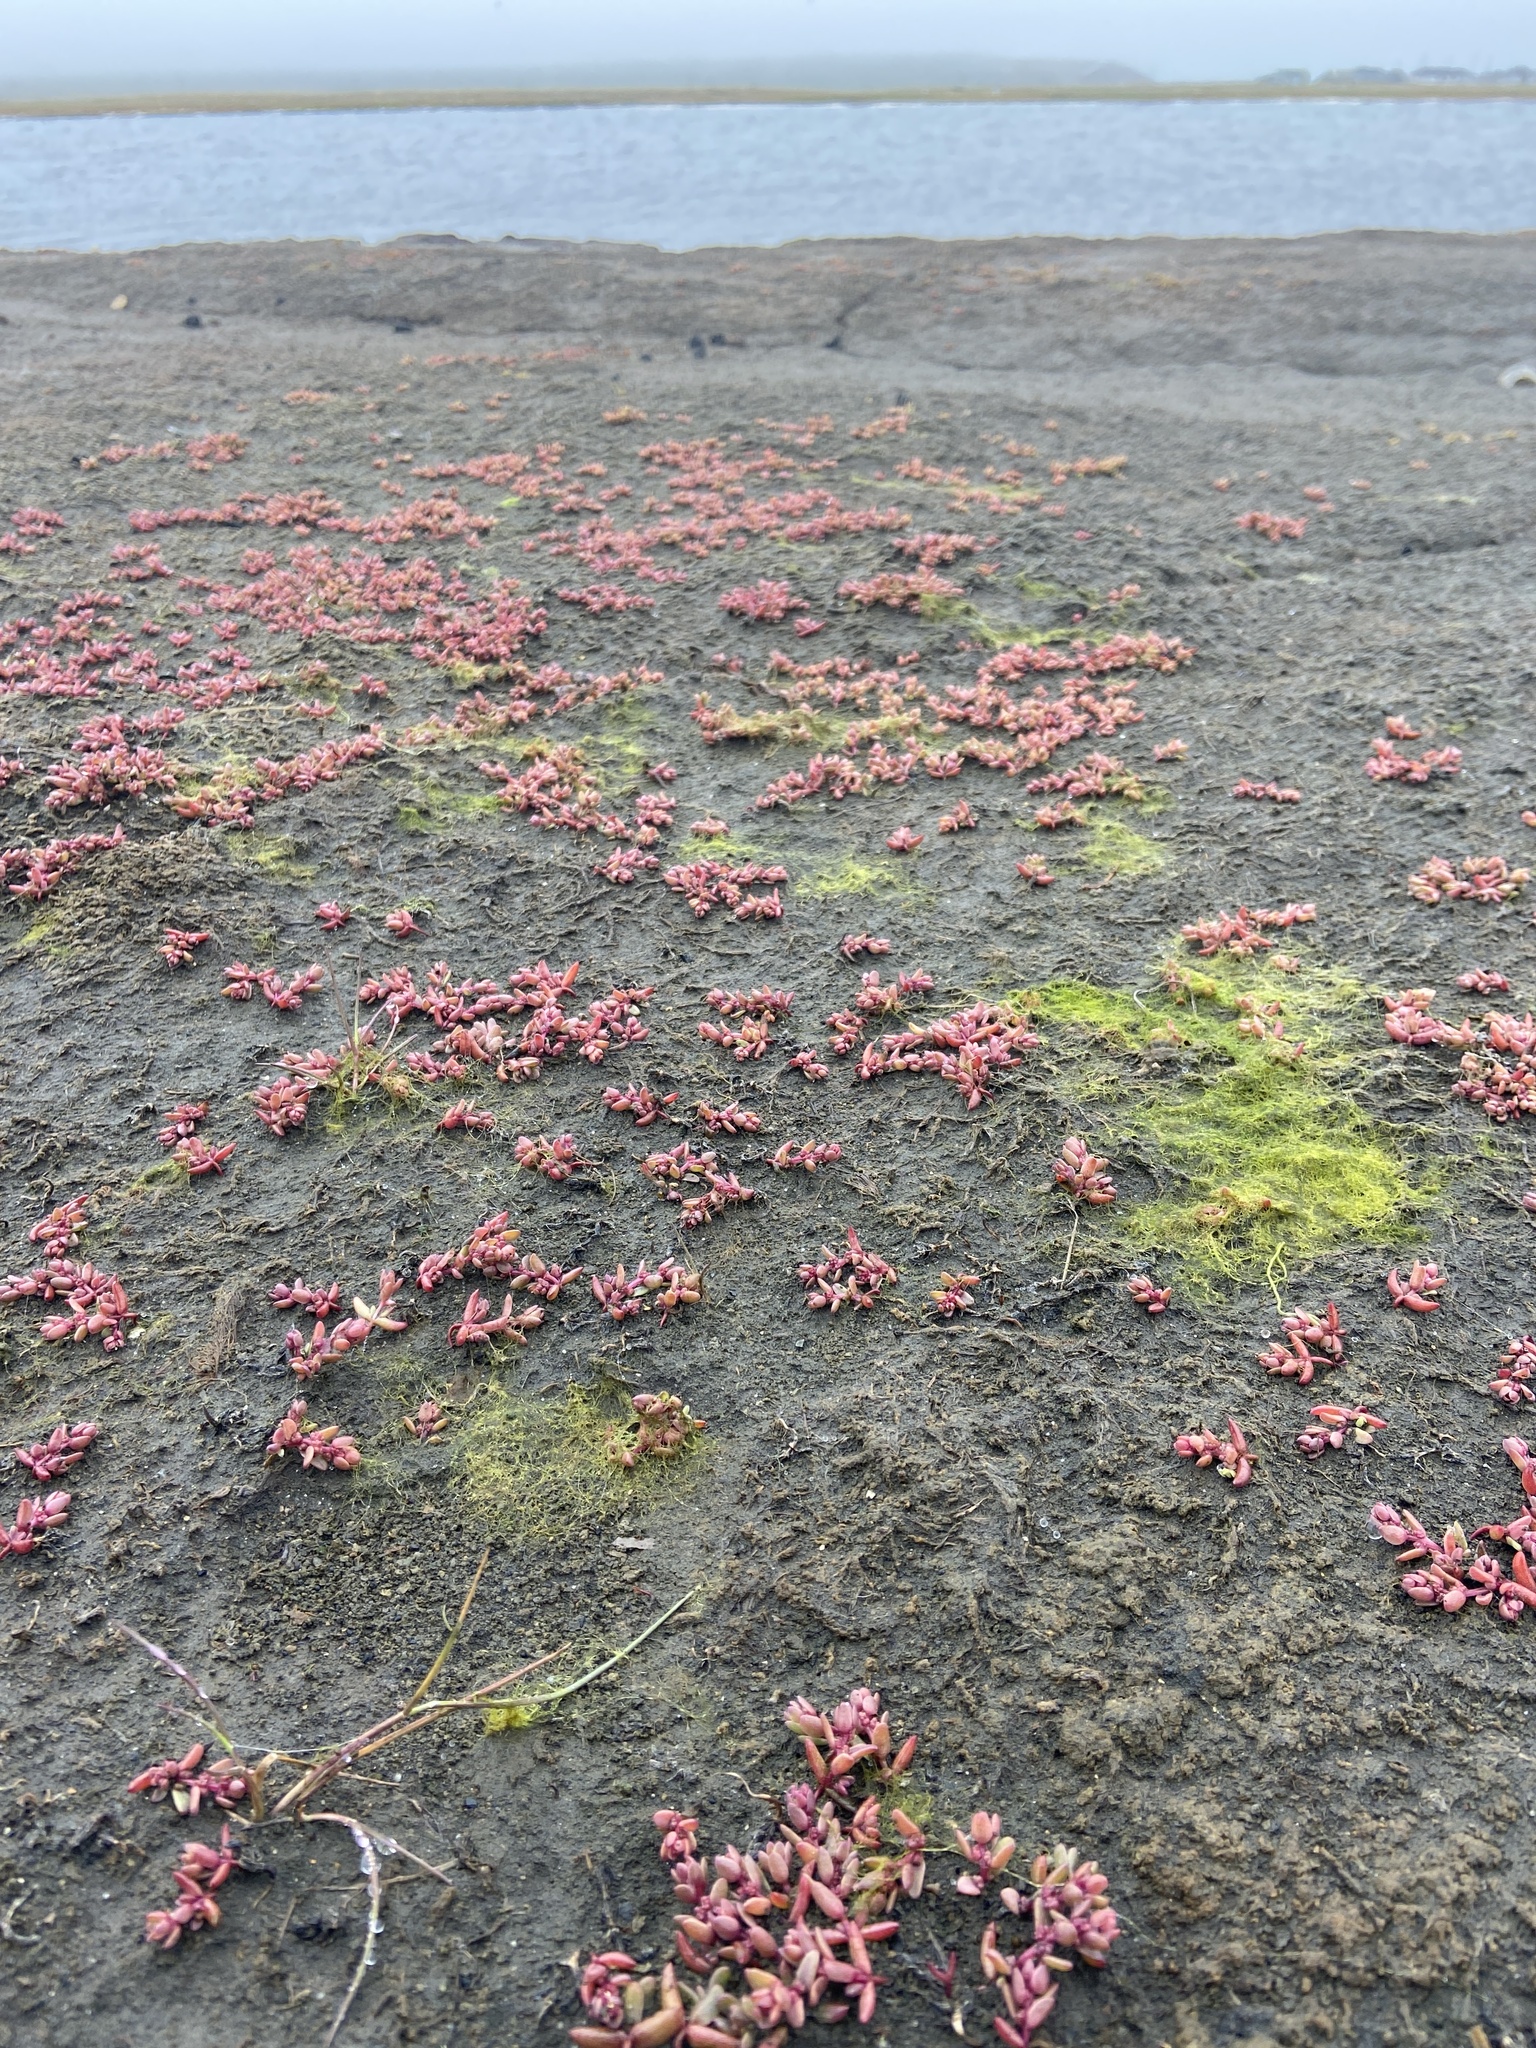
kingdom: Plantae
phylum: Tracheophyta
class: Magnoliopsida
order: Caryophyllales
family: Amaranthaceae
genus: Suaeda
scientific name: Suaeda arctica
